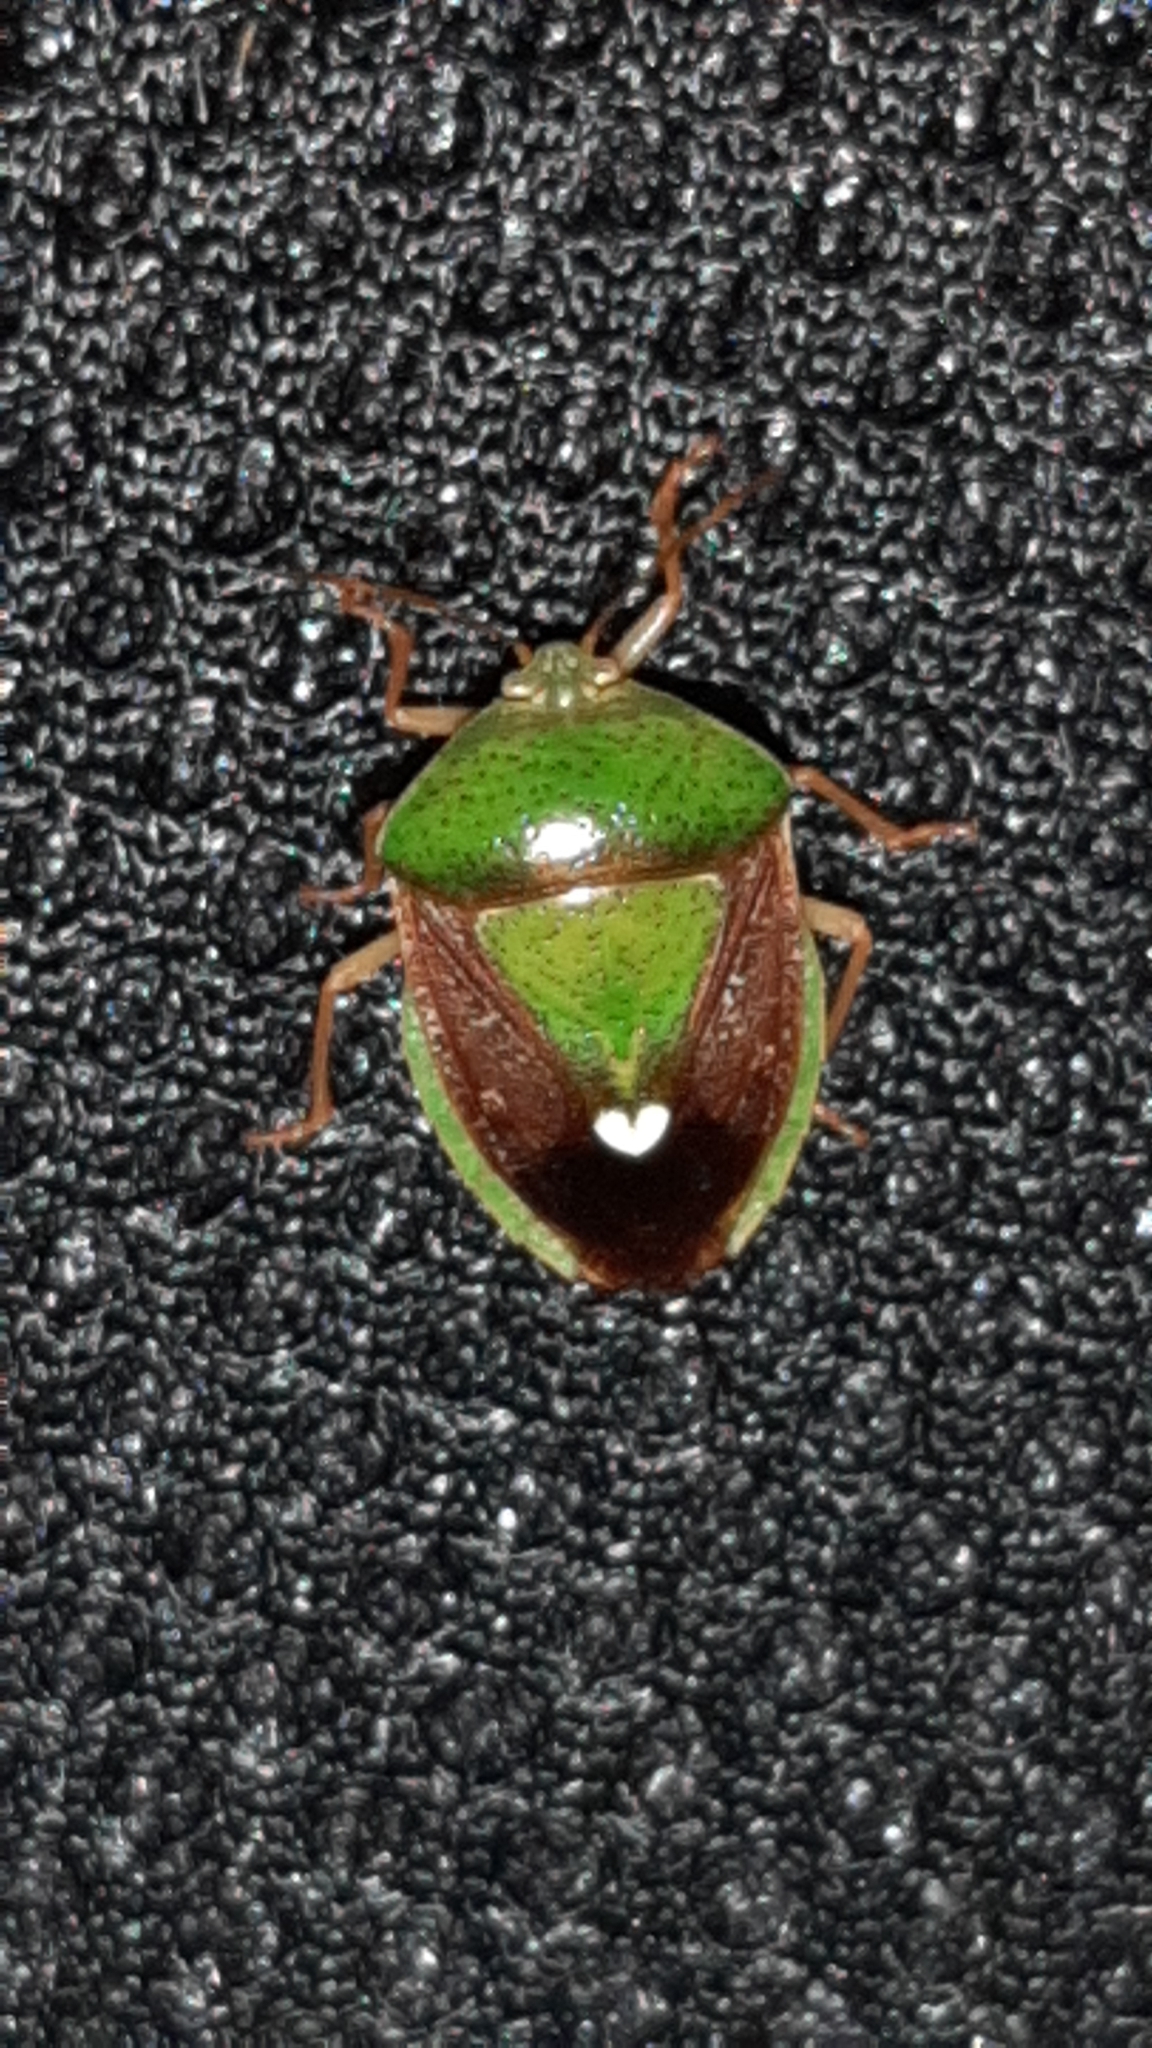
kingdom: Animalia
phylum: Arthropoda
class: Insecta
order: Hemiptera
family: Pentatomidae
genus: Edessa
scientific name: Edessa bifida
